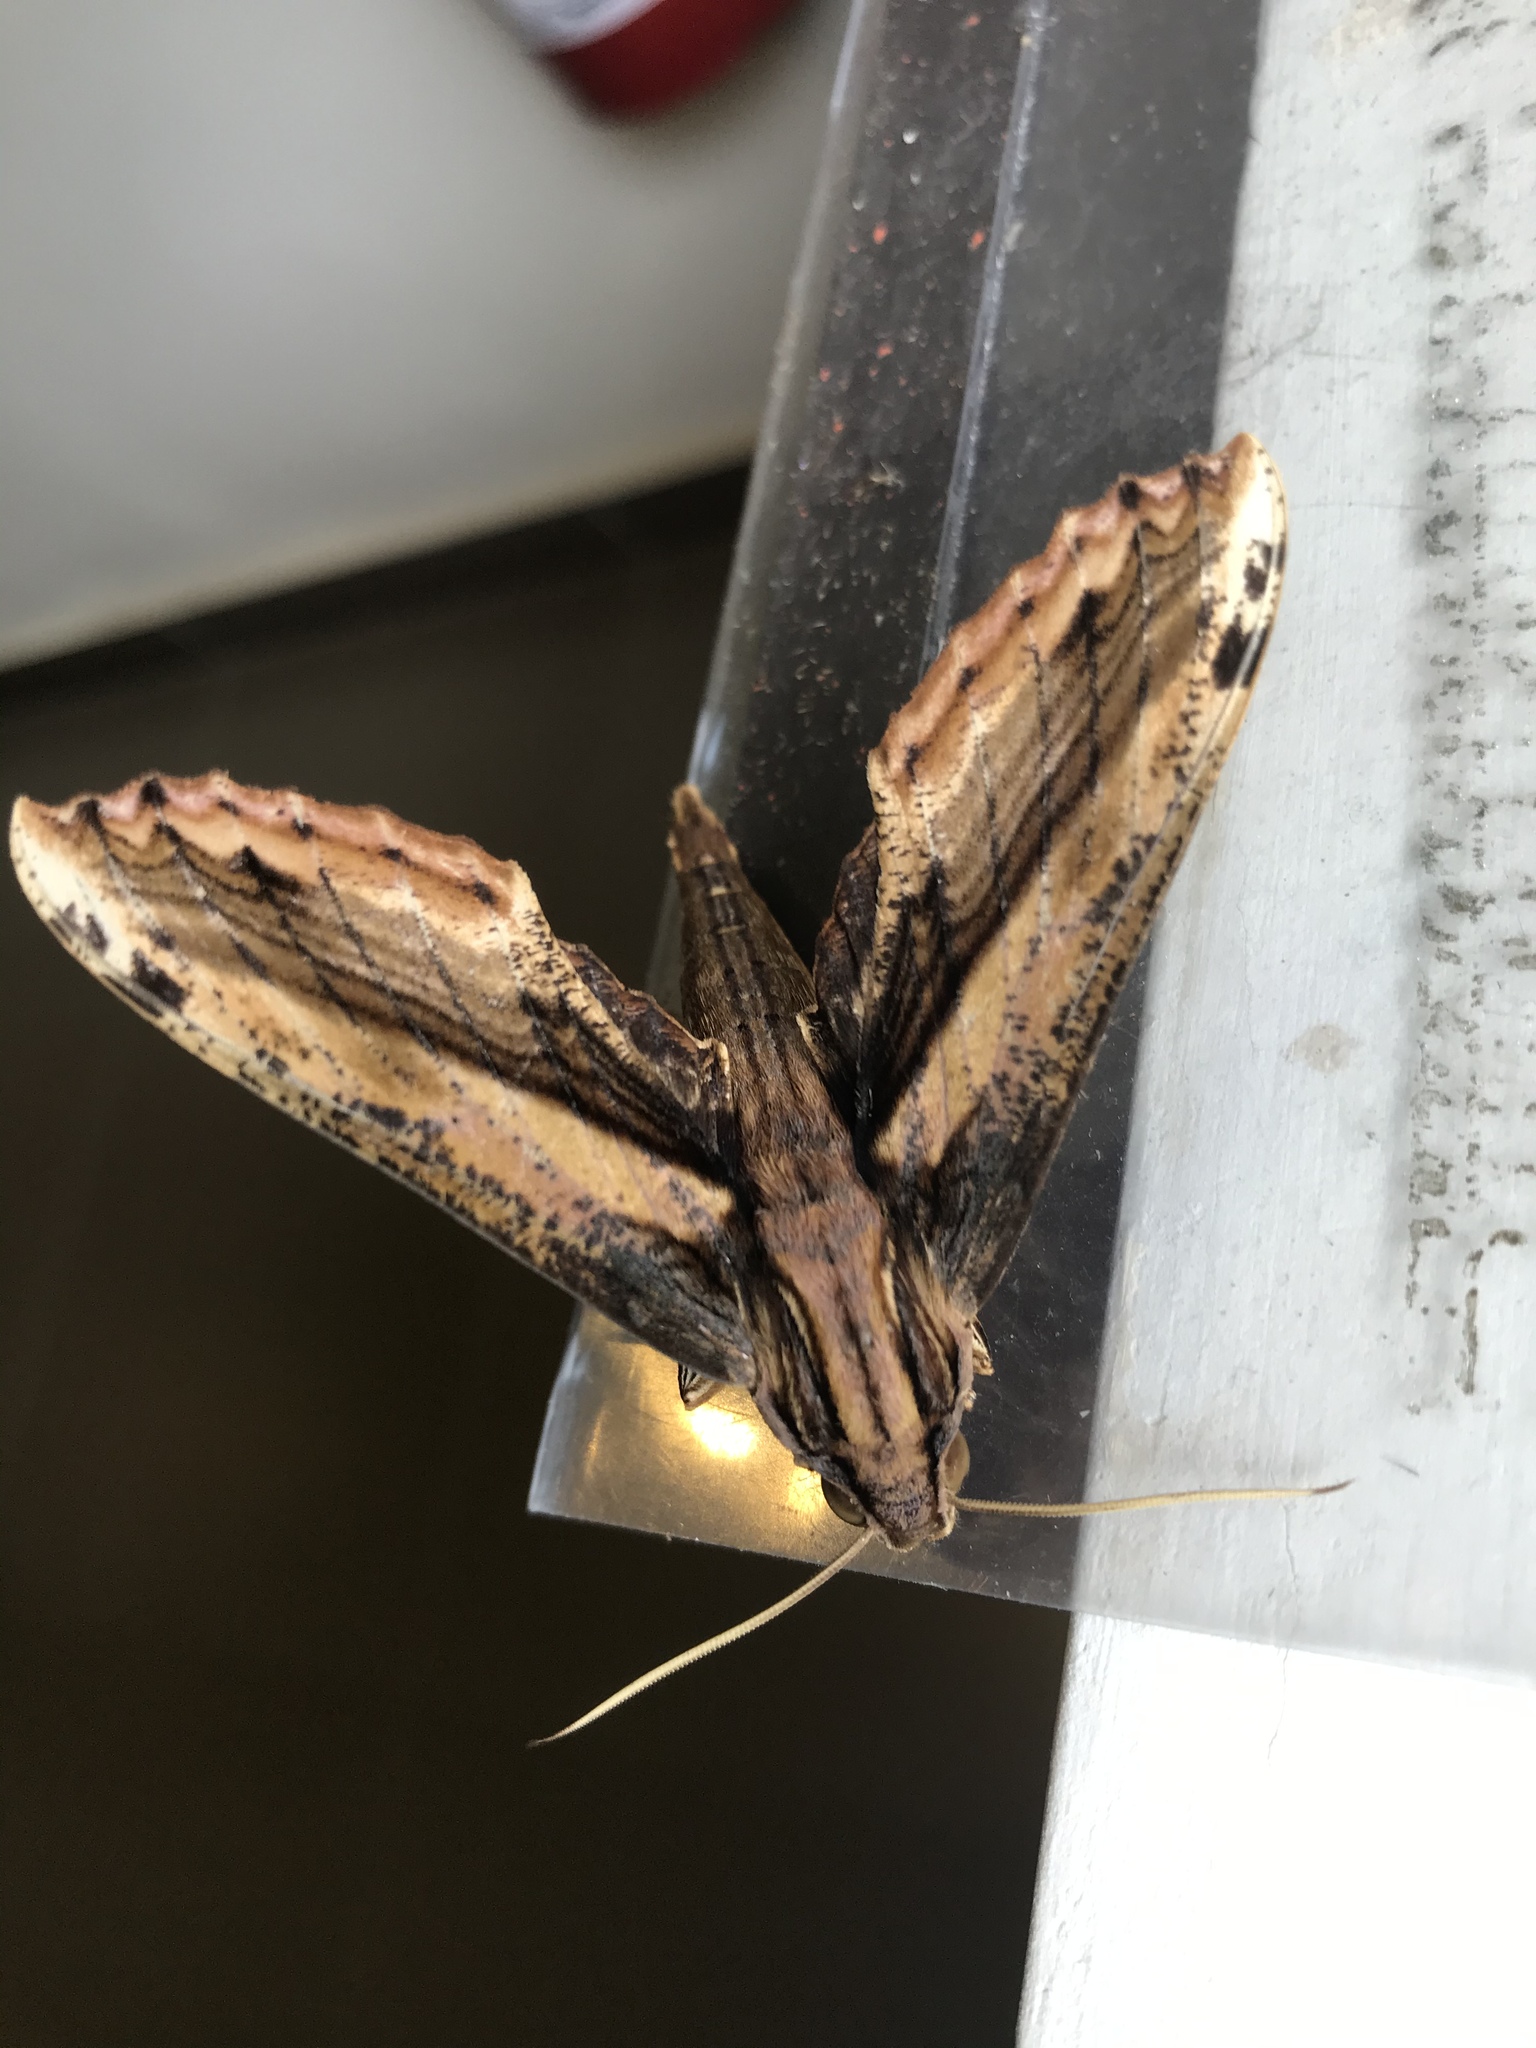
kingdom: Animalia
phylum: Arthropoda
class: Insecta
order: Lepidoptera
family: Sphingidae
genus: Xylophanes
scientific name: Xylophanes guianensis
